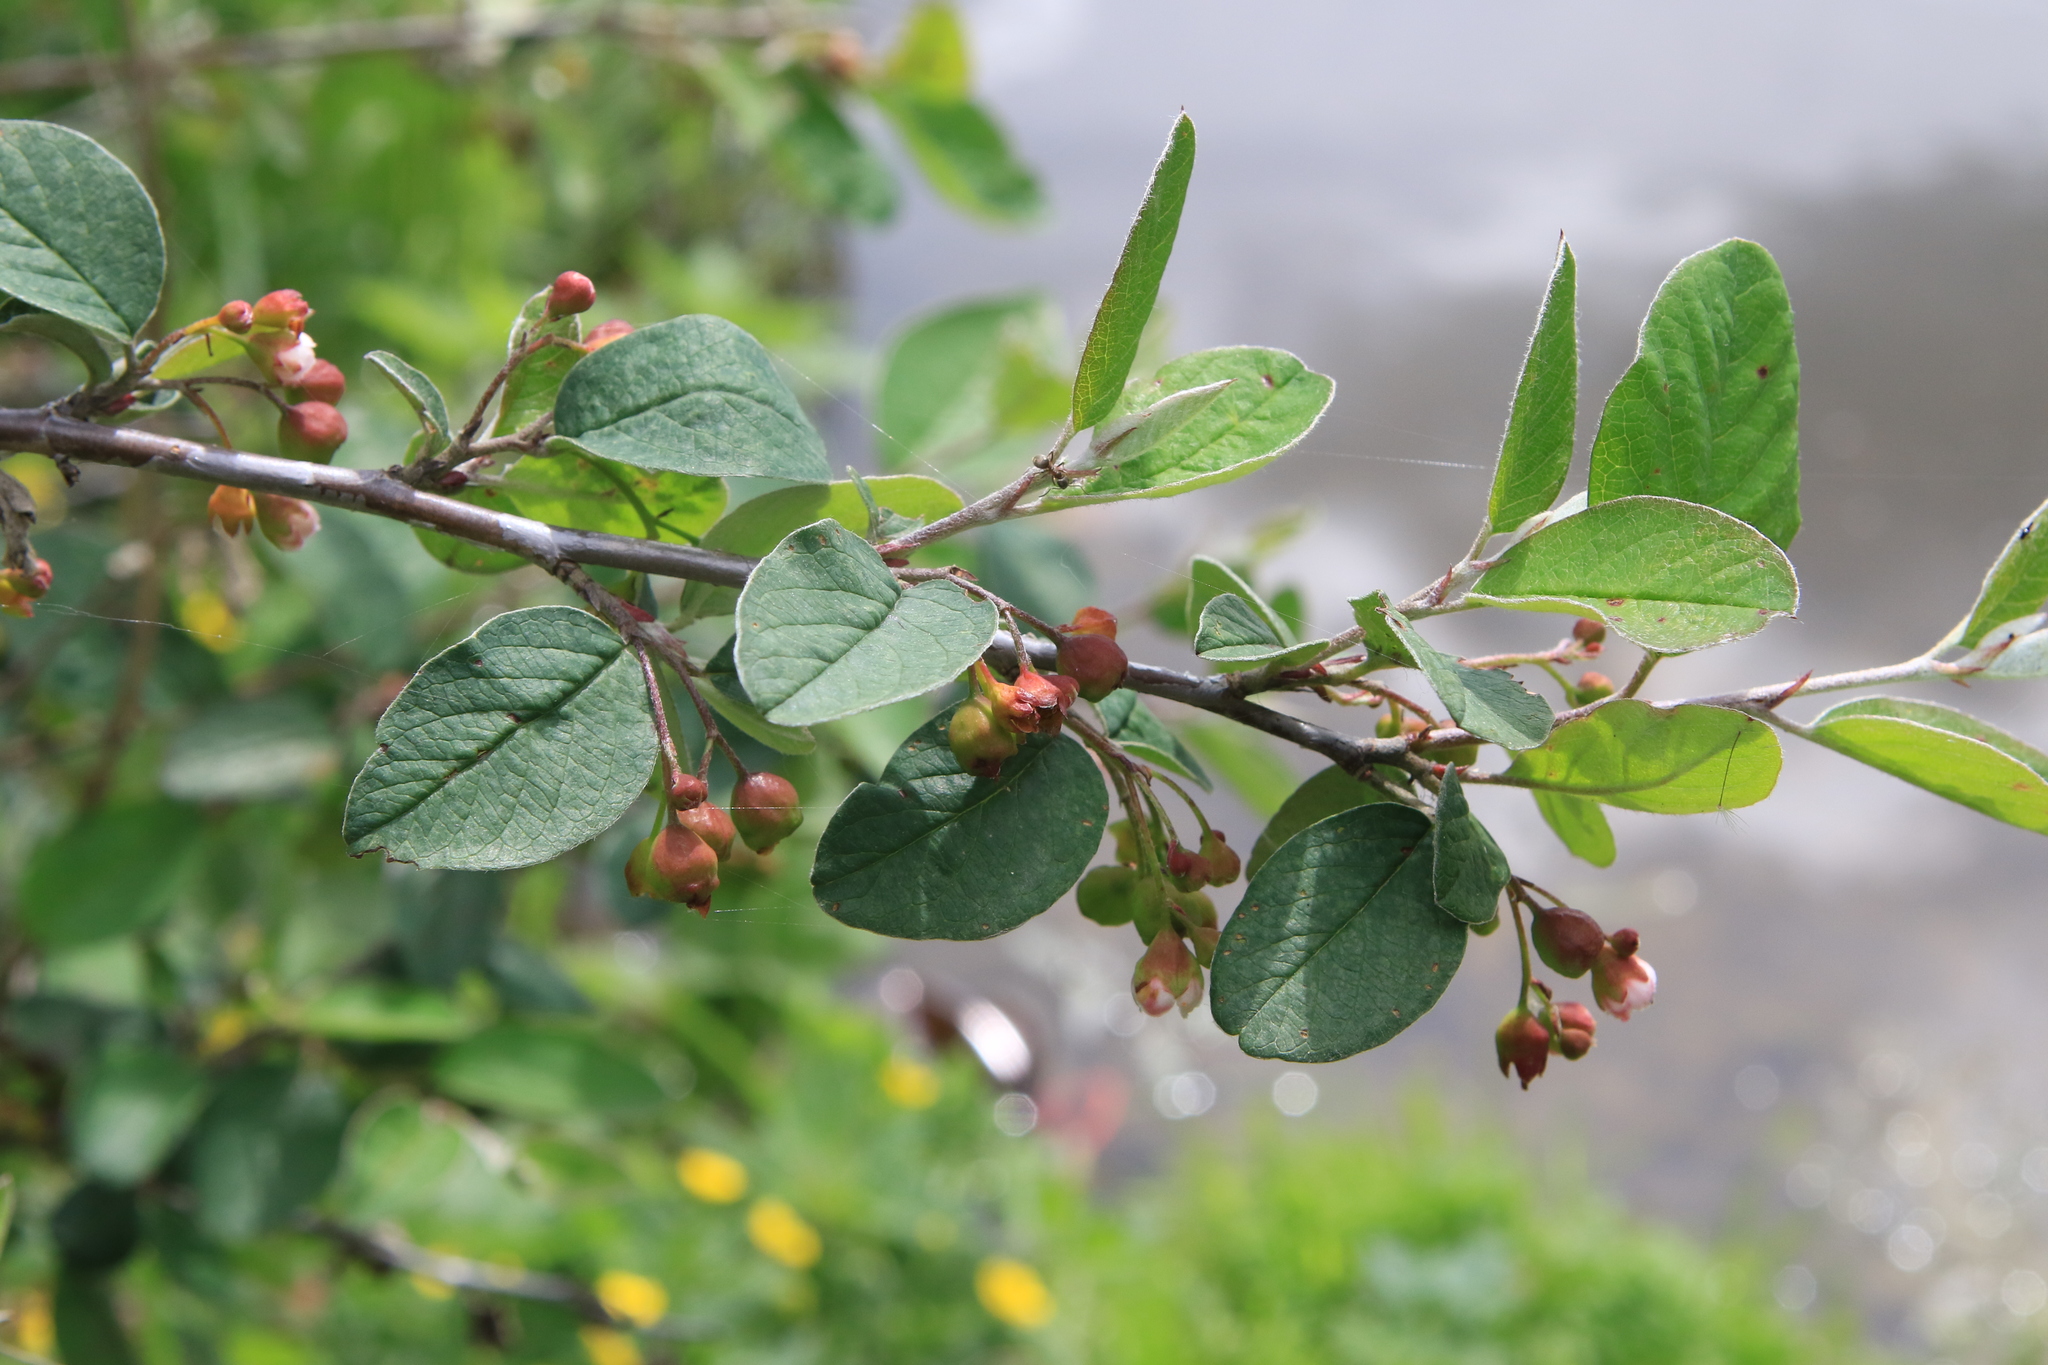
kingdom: Plantae
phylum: Tracheophyta
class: Magnoliopsida
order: Rosales
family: Rosaceae
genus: Cotoneaster
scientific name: Cotoneaster melanocarpus
